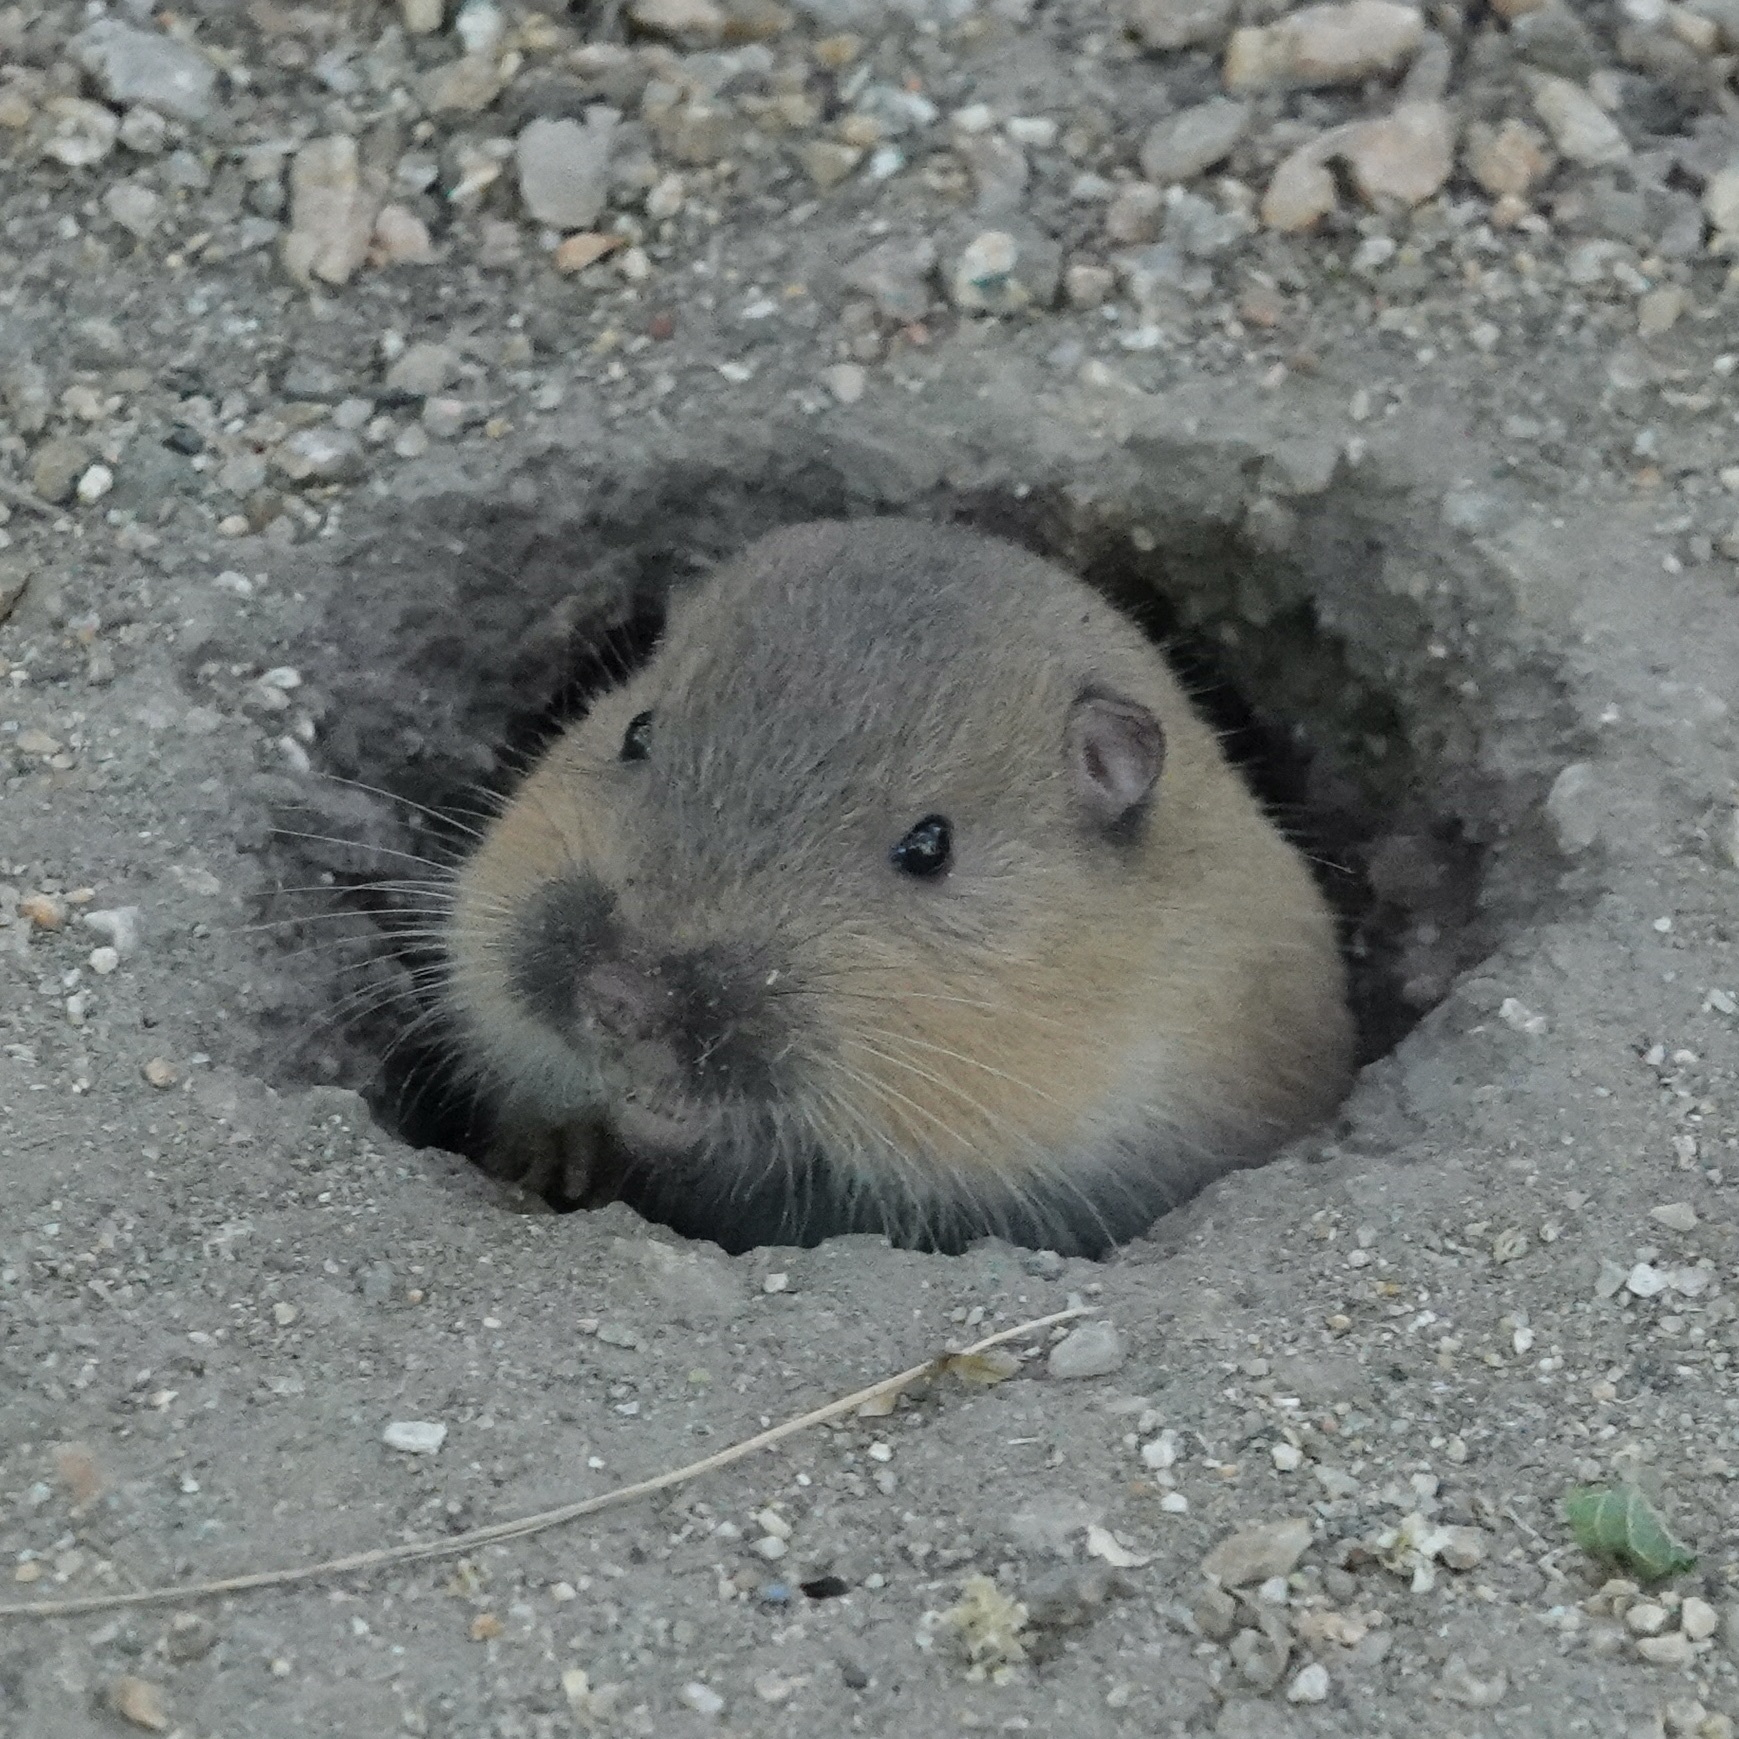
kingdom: Animalia
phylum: Chordata
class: Mammalia
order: Rodentia
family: Geomyidae
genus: Thomomys
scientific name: Thomomys bottae
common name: Botta's pocket gopher
